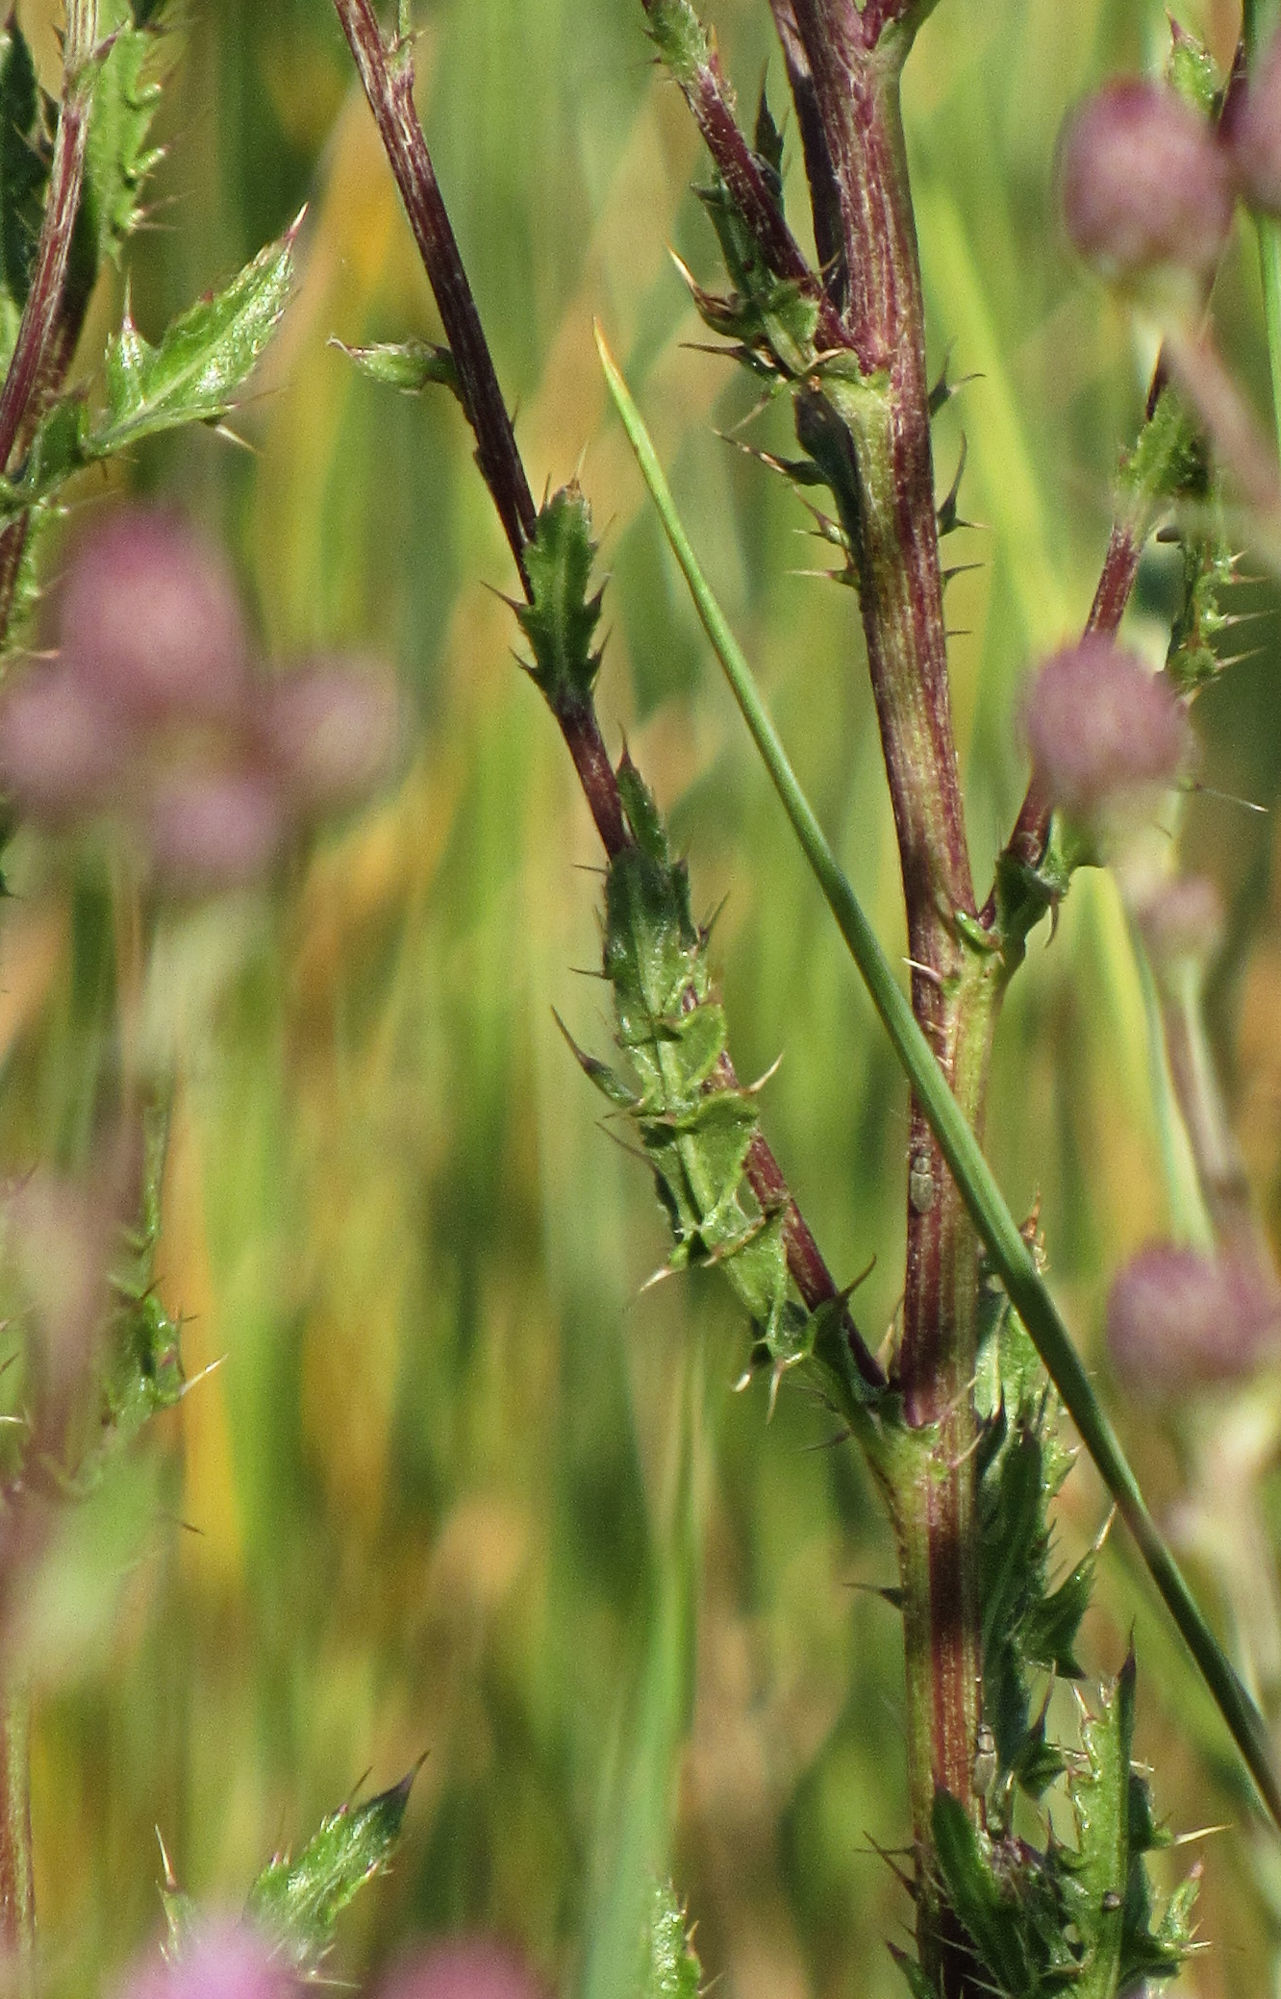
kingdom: Plantae
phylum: Tracheophyta
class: Magnoliopsida
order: Asterales
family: Asteraceae
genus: Cirsium
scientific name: Cirsium arvense
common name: Creeping thistle
